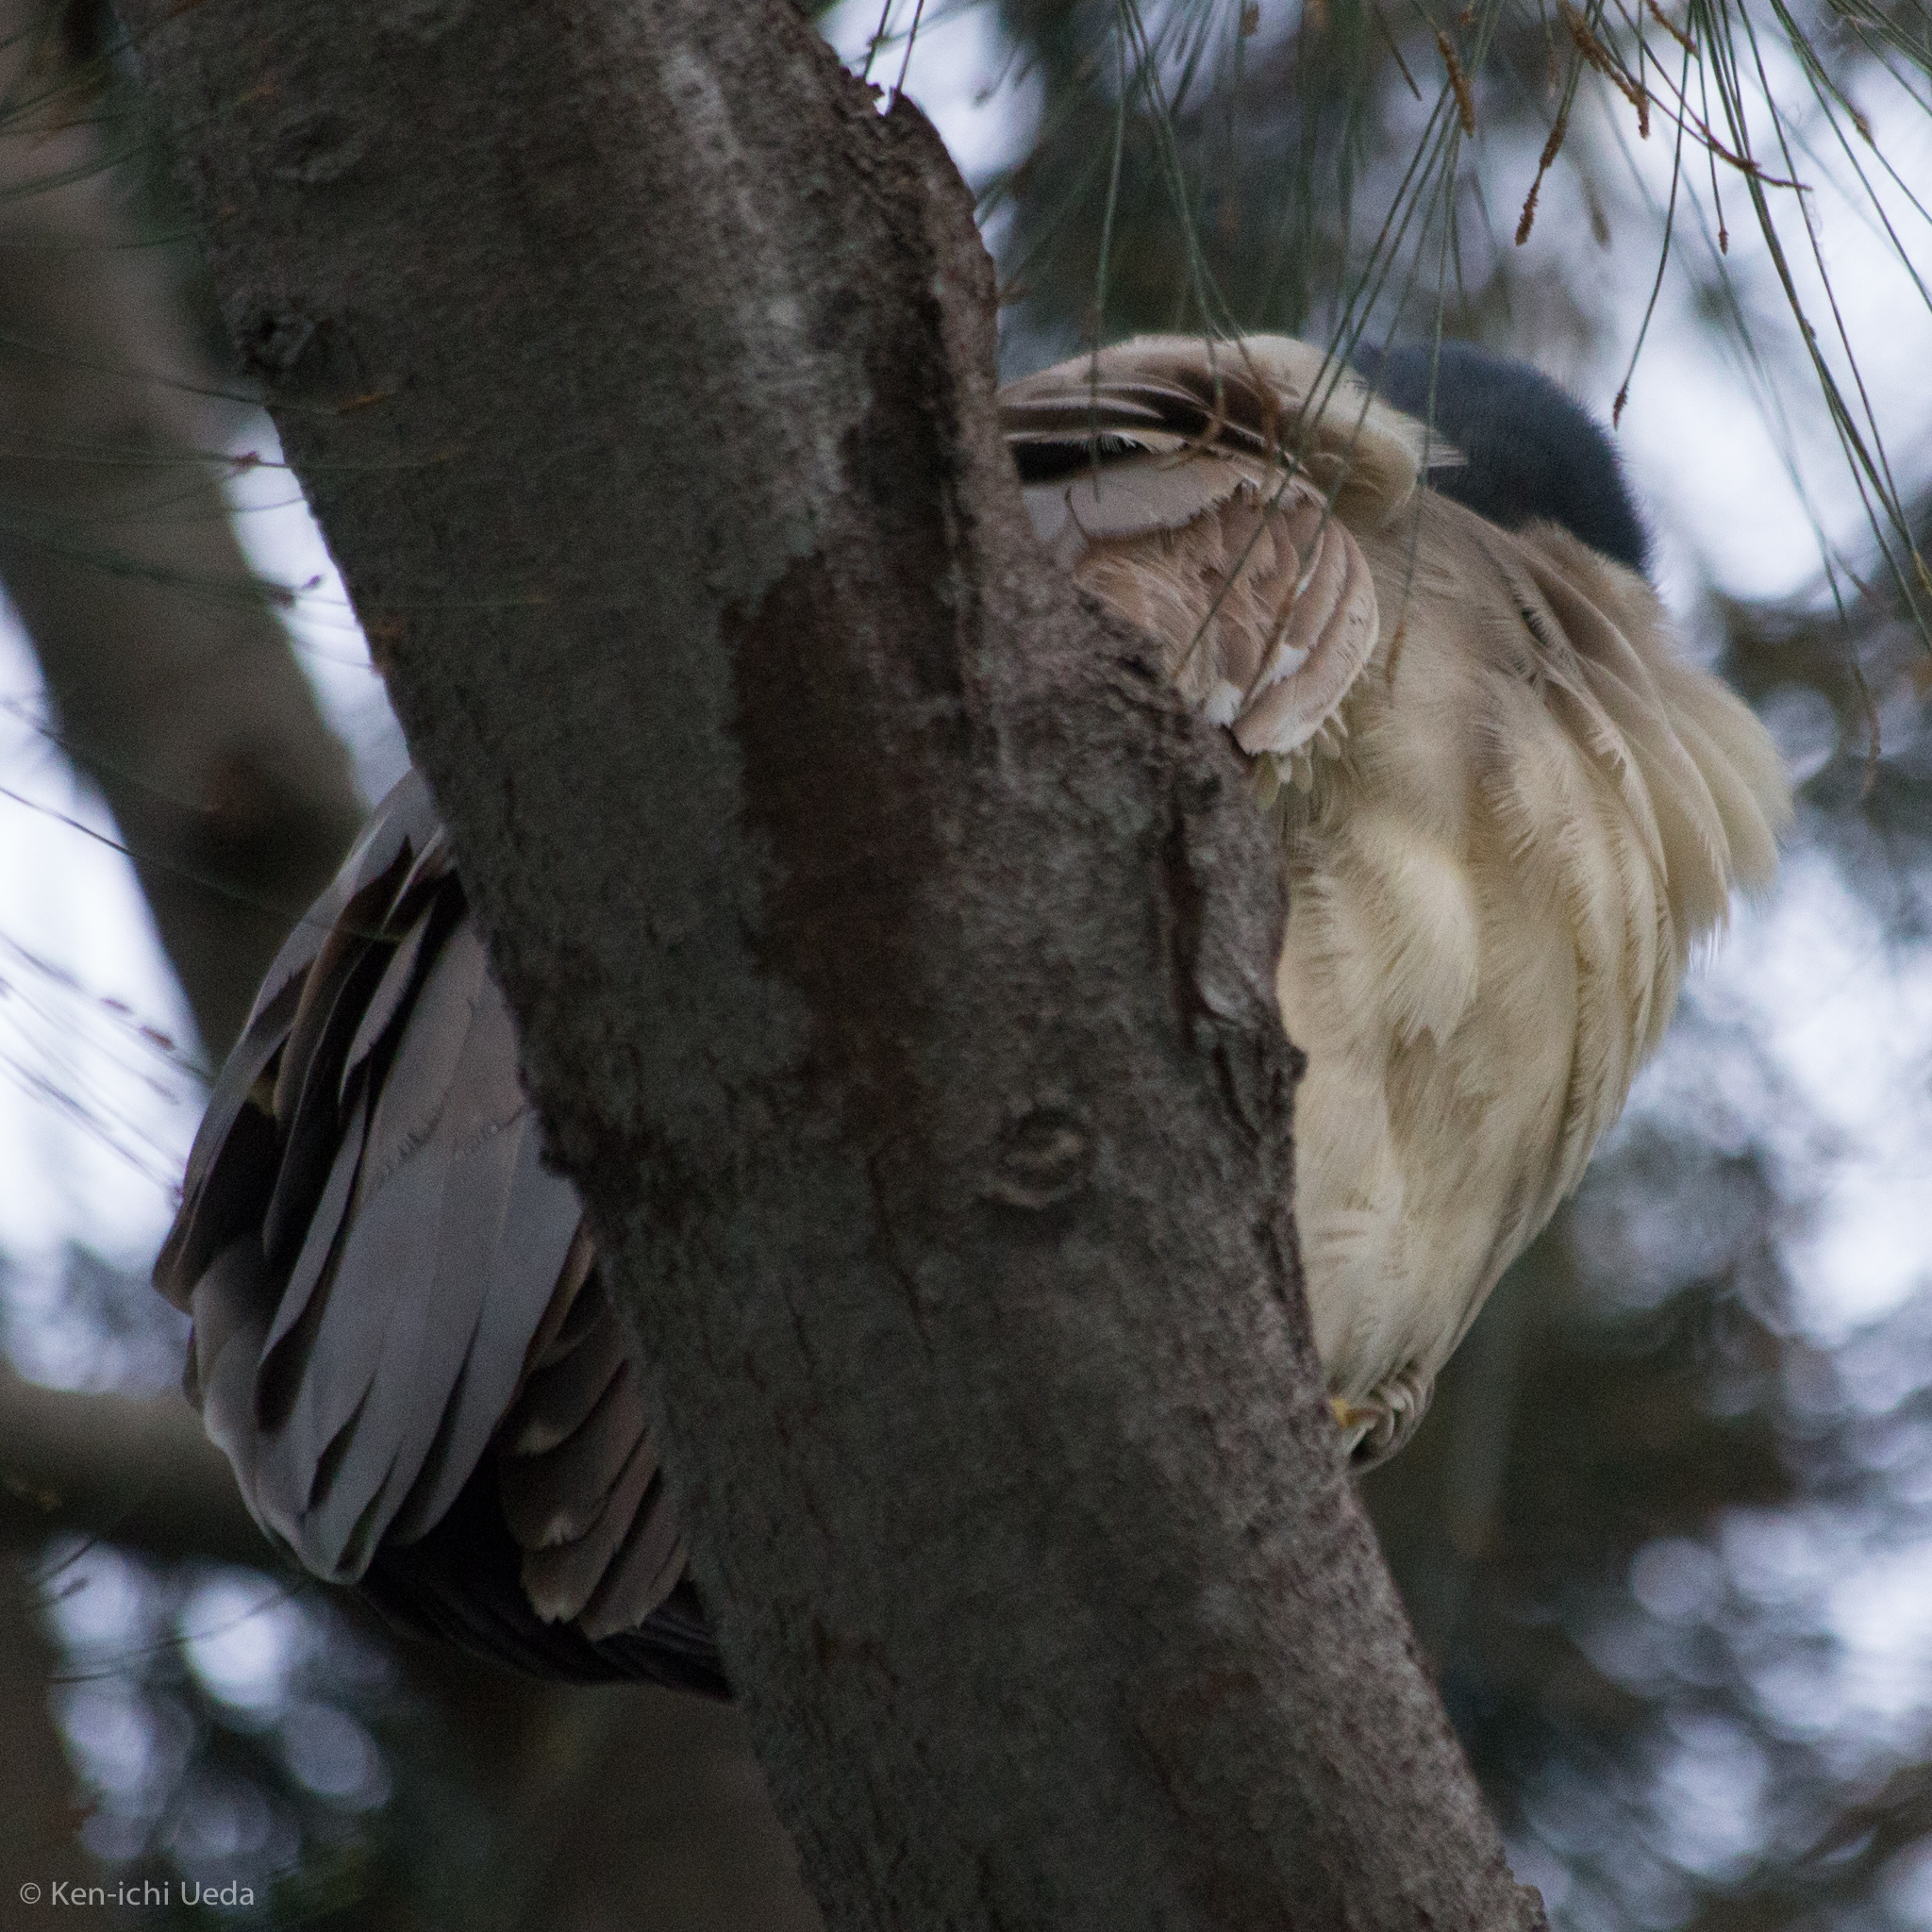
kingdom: Animalia
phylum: Chordata
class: Aves
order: Pelecaniformes
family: Ardeidae
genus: Nycticorax
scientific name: Nycticorax nycticorax
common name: Black-crowned night heron
